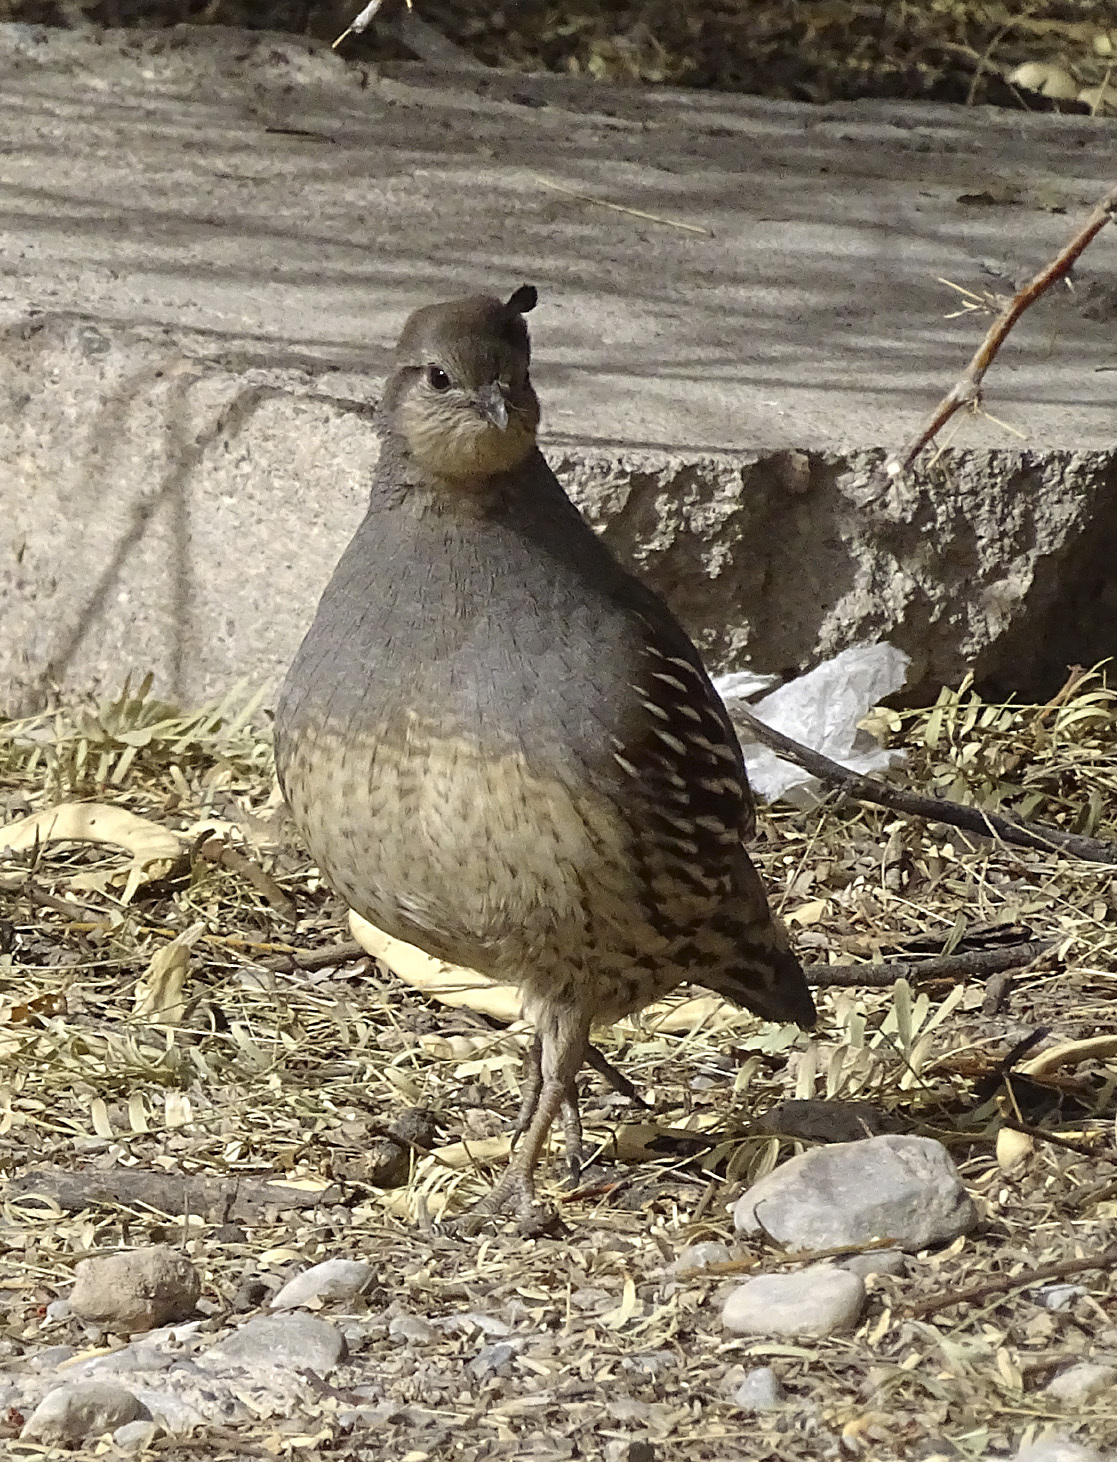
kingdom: Animalia
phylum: Chordata
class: Aves
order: Galliformes
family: Odontophoridae
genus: Callipepla
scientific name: Callipepla gambelii
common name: Gambel's quail
